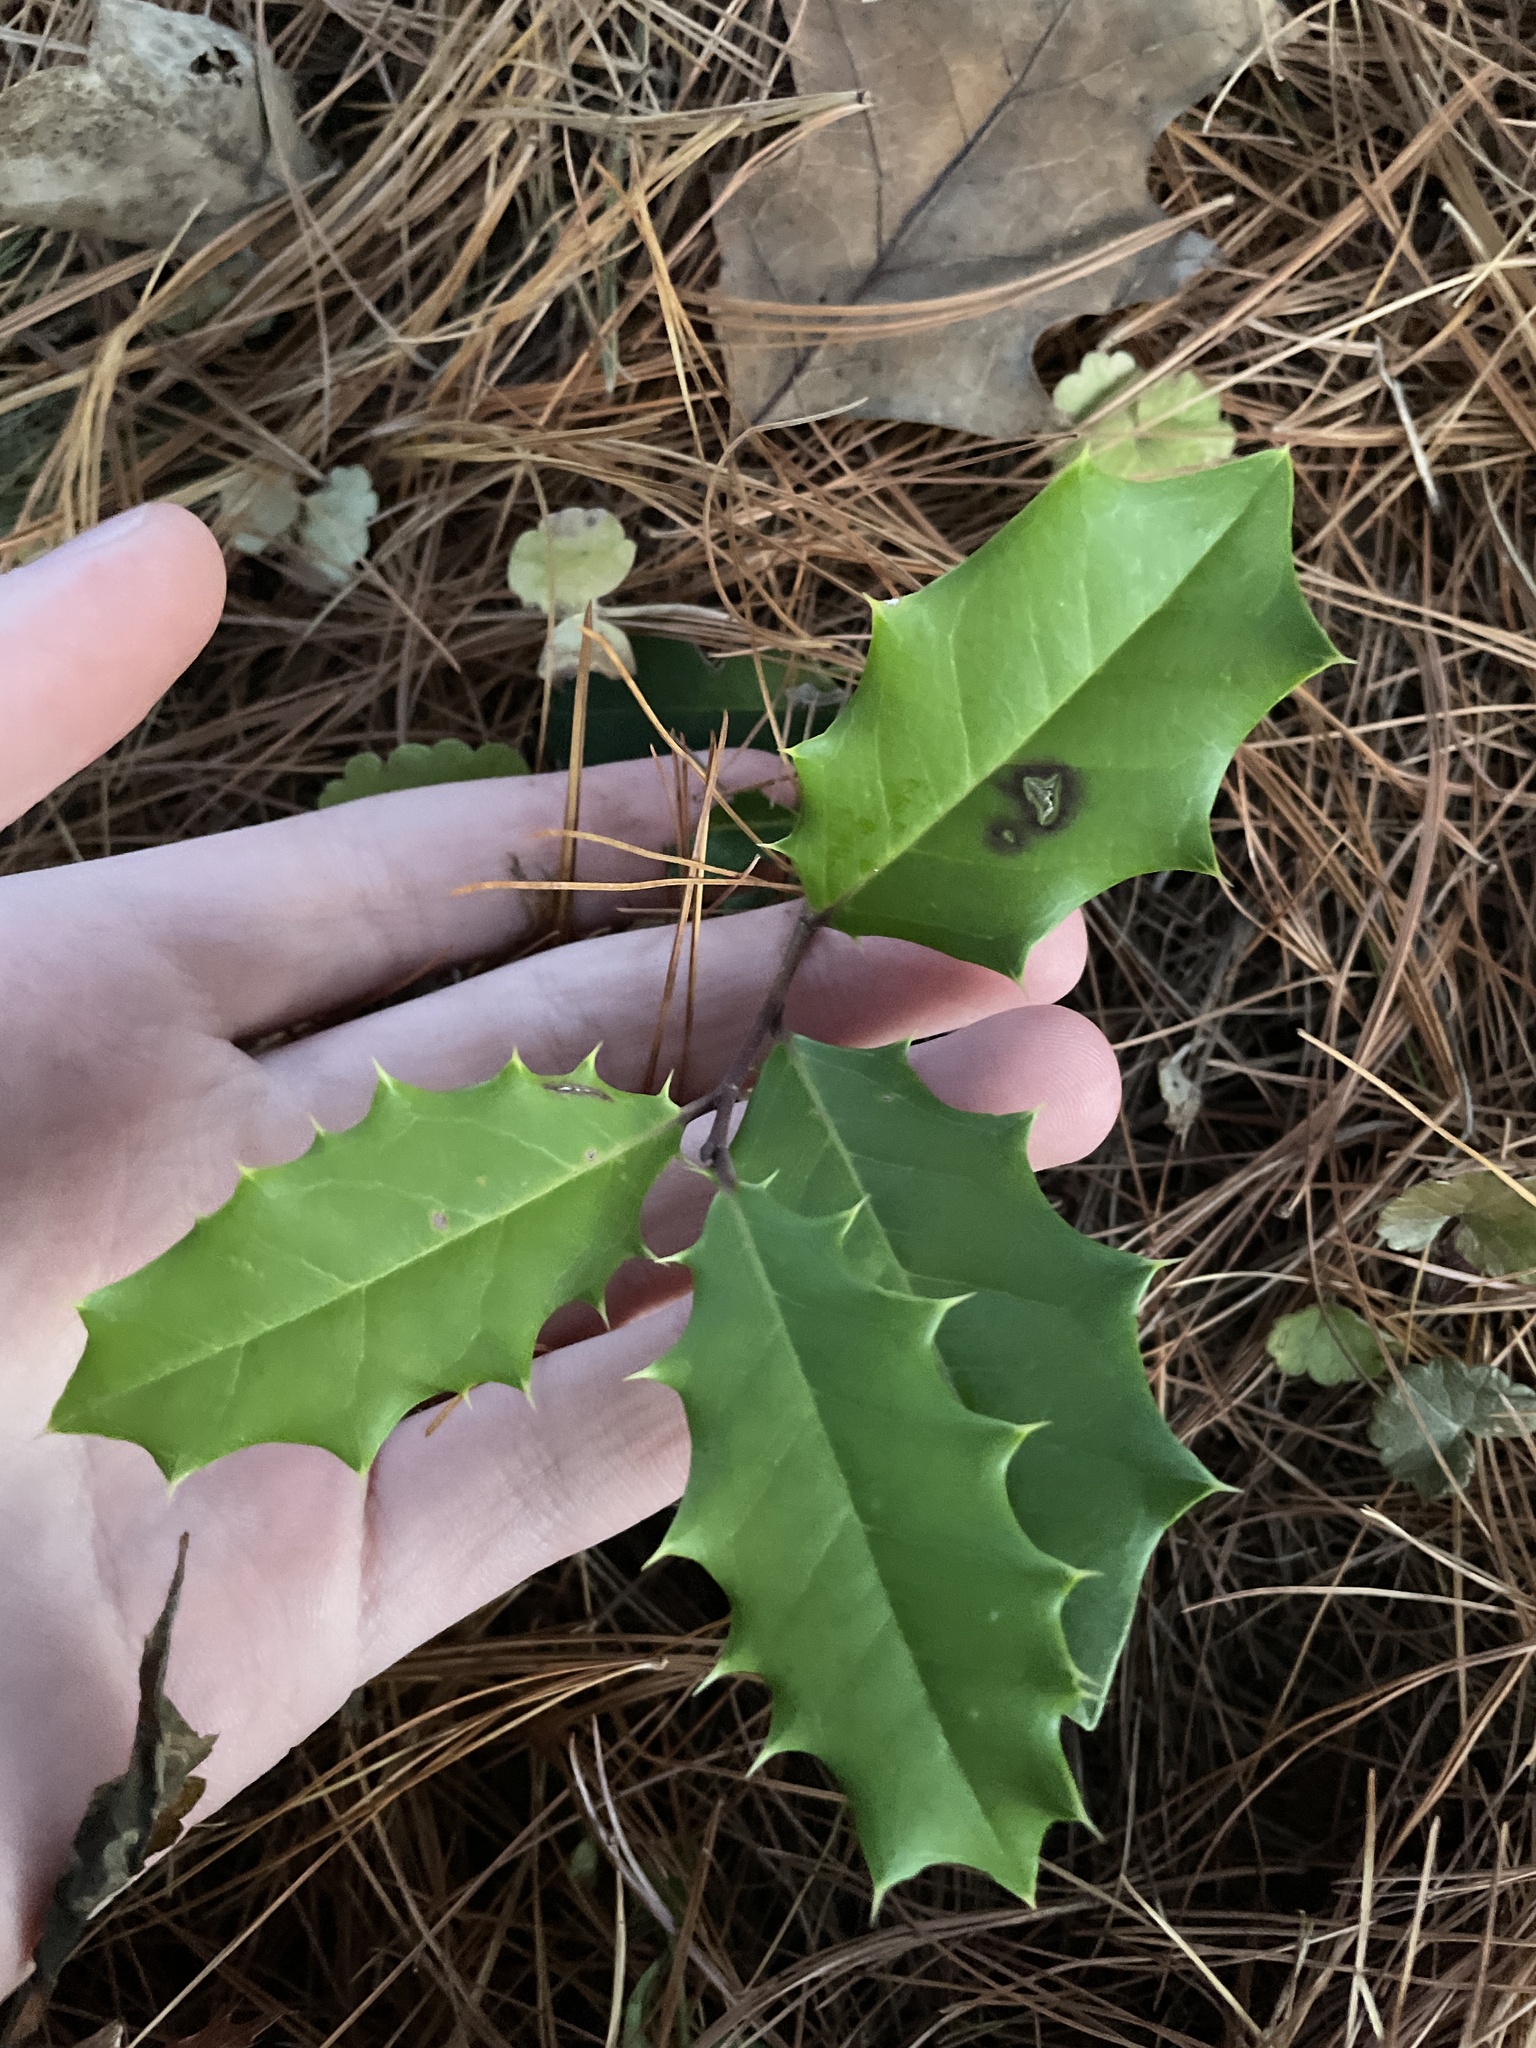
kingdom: Plantae
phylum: Tracheophyta
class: Magnoliopsida
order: Aquifoliales
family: Aquifoliaceae
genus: Ilex
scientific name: Ilex opaca
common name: American holly
